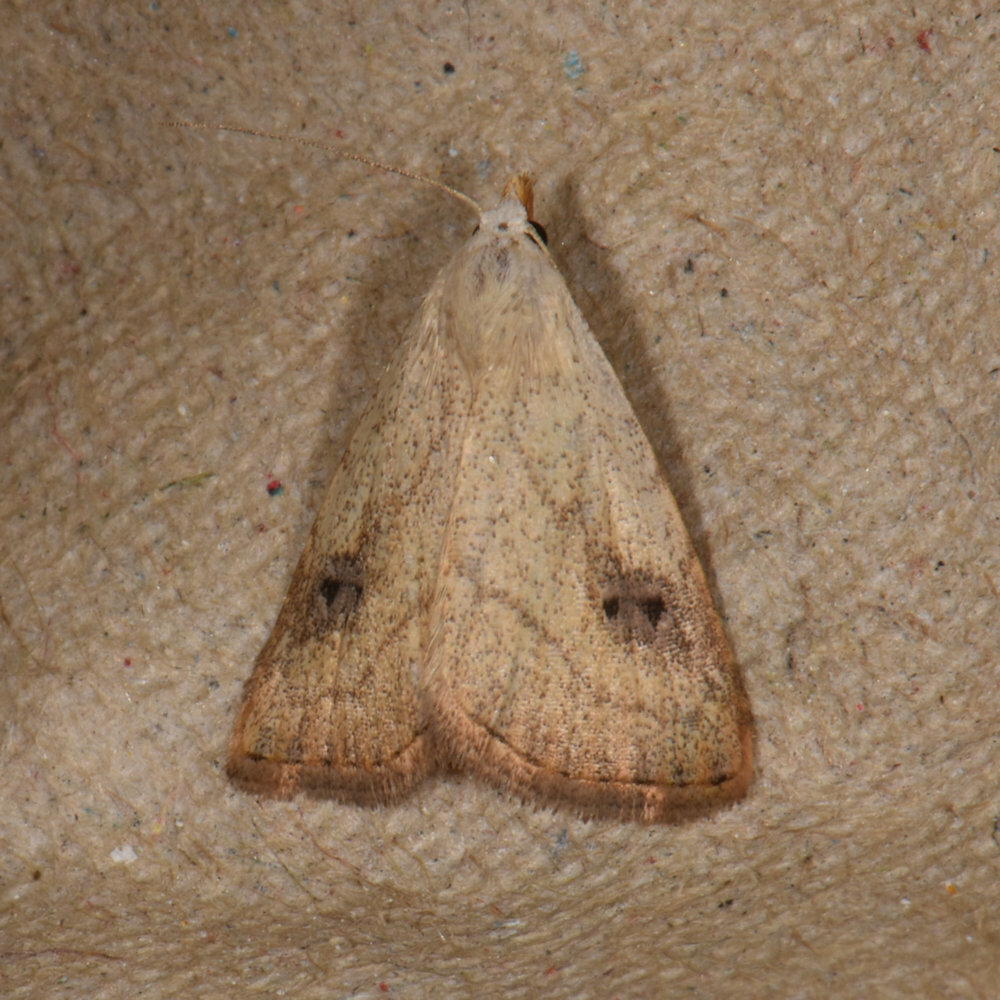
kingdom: Animalia
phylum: Arthropoda
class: Insecta
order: Lepidoptera
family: Erebidae
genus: Rivula
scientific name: Rivula propinqualis
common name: Spotted grass moth
